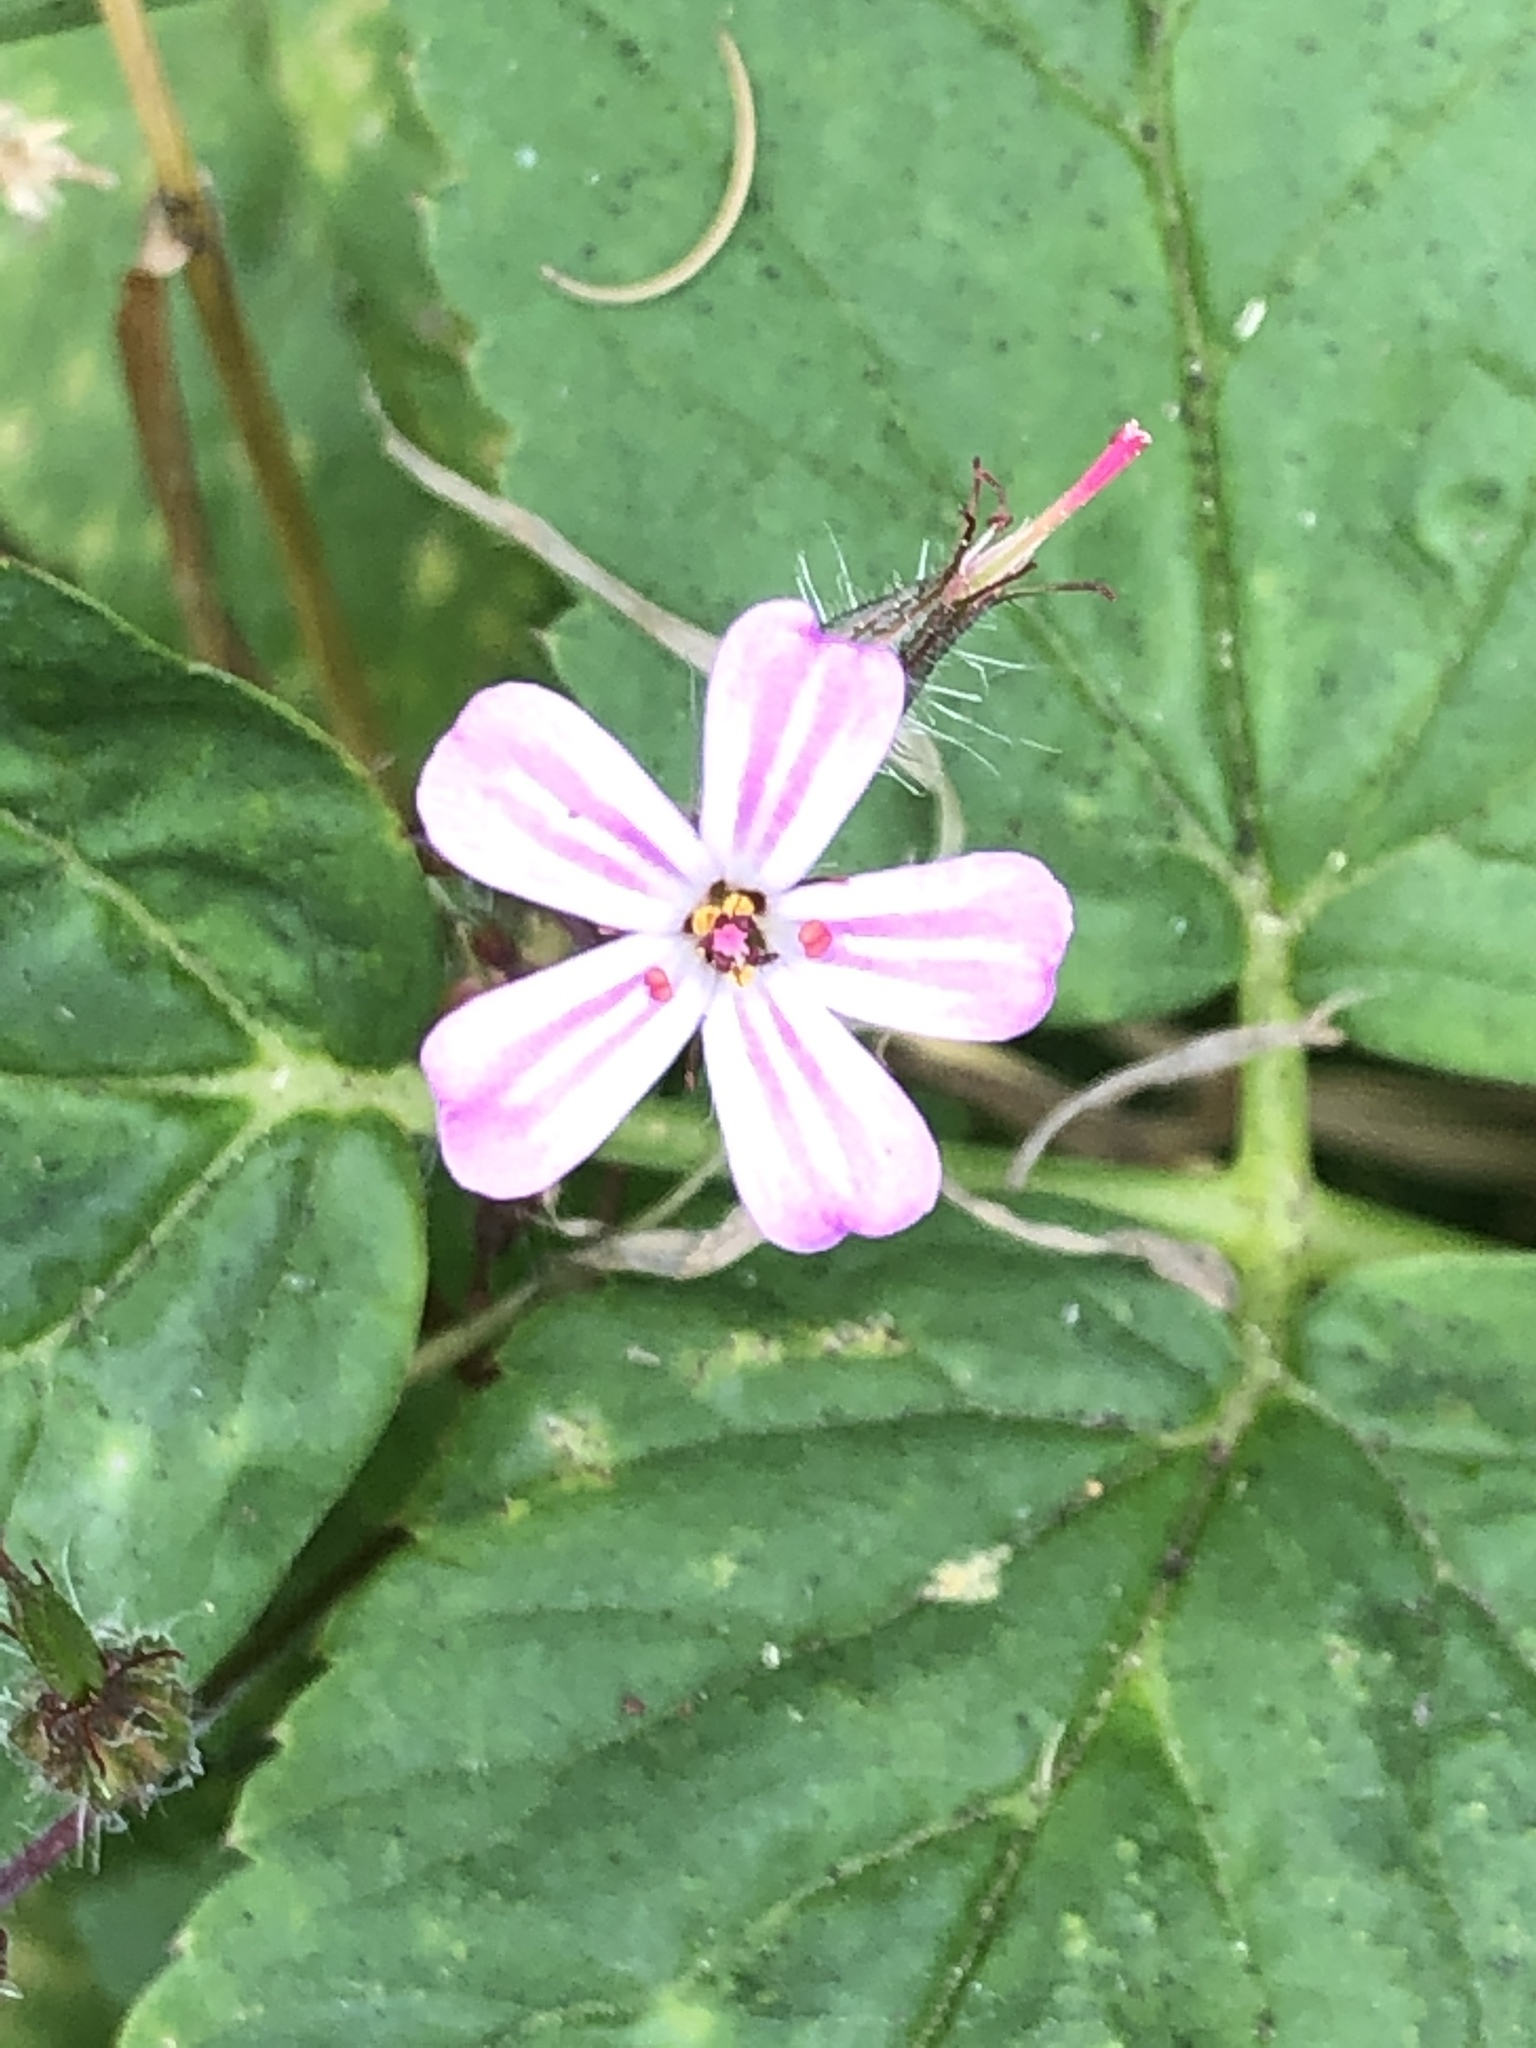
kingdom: Plantae
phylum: Tracheophyta
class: Magnoliopsida
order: Geraniales
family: Geraniaceae
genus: Geranium
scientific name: Geranium robertianum
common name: Herb-robert
